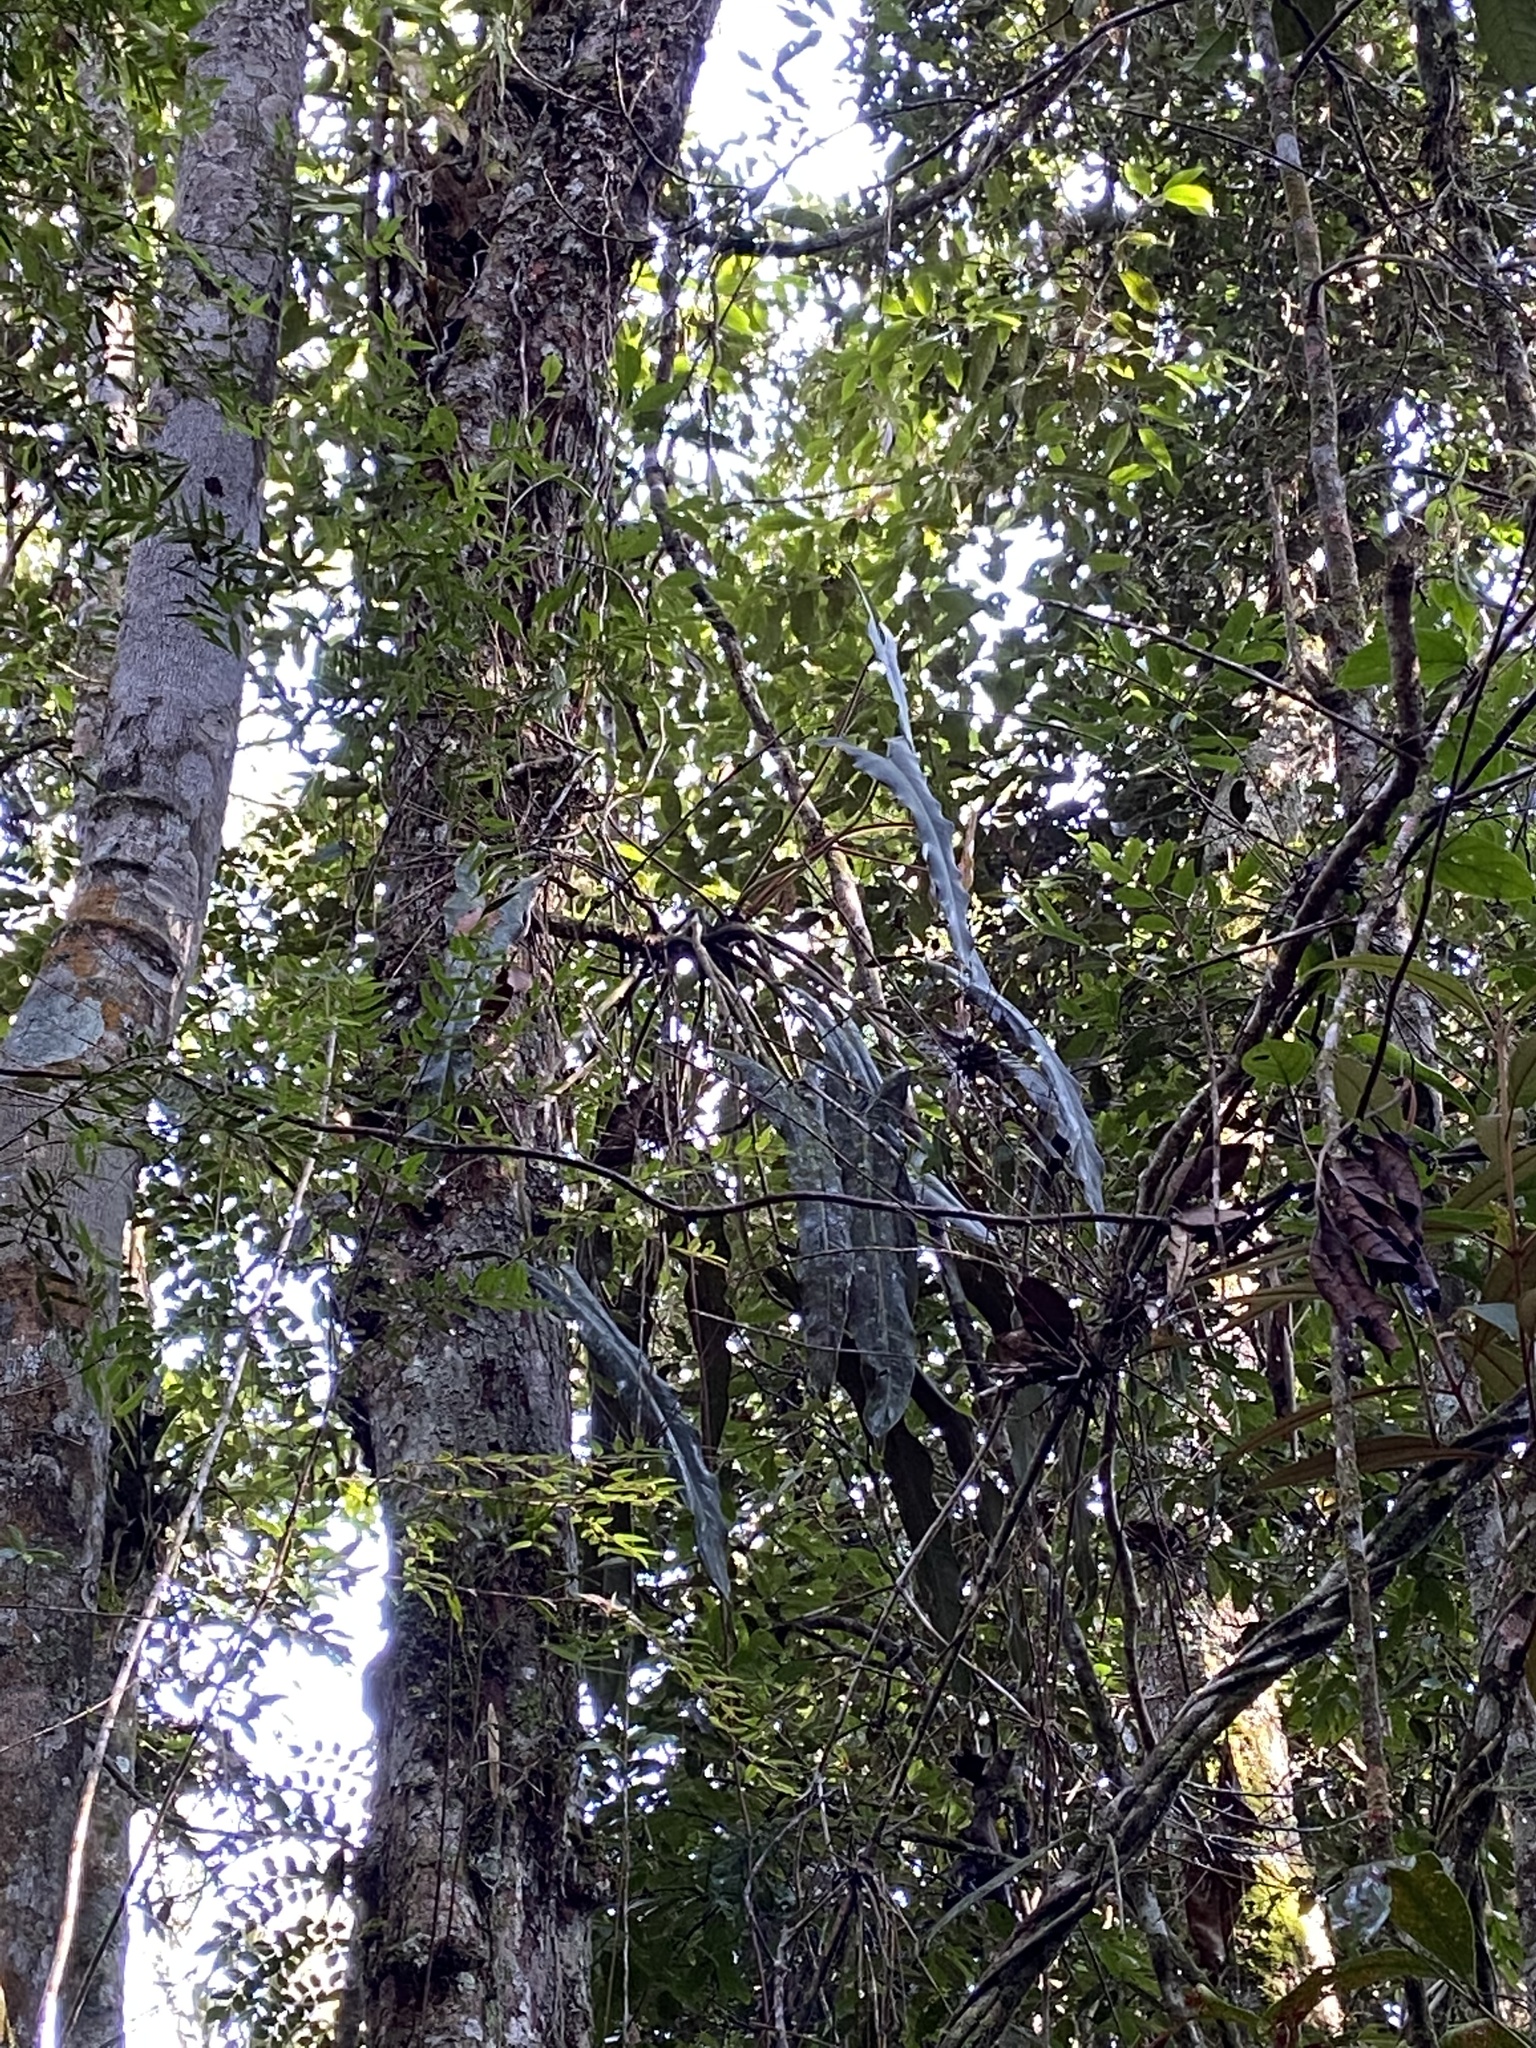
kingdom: Plantae
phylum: Tracheophyta
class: Liliopsida
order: Alismatales
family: Araceae
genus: Philodendron
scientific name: Philodendron spiritus-sancti
